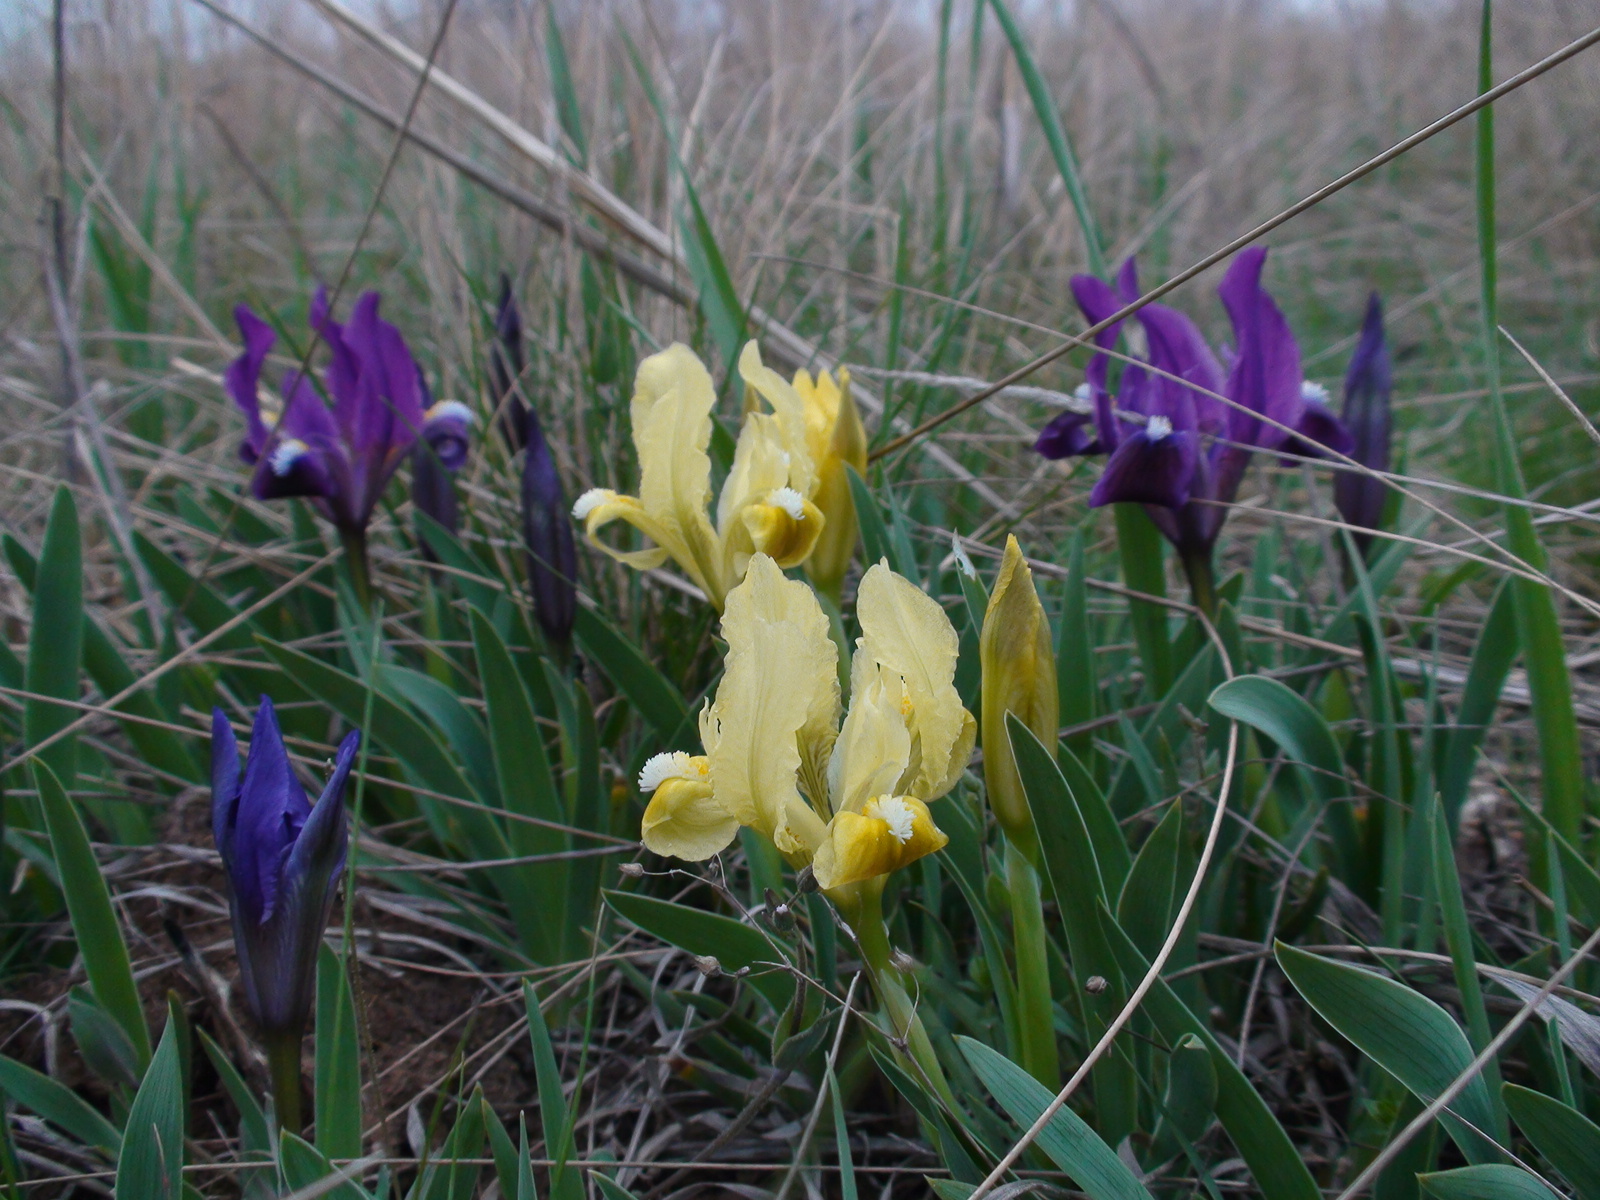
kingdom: Plantae
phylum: Tracheophyta
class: Liliopsida
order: Asparagales
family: Iridaceae
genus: Iris
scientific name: Iris pumila
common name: Dwarf iris
